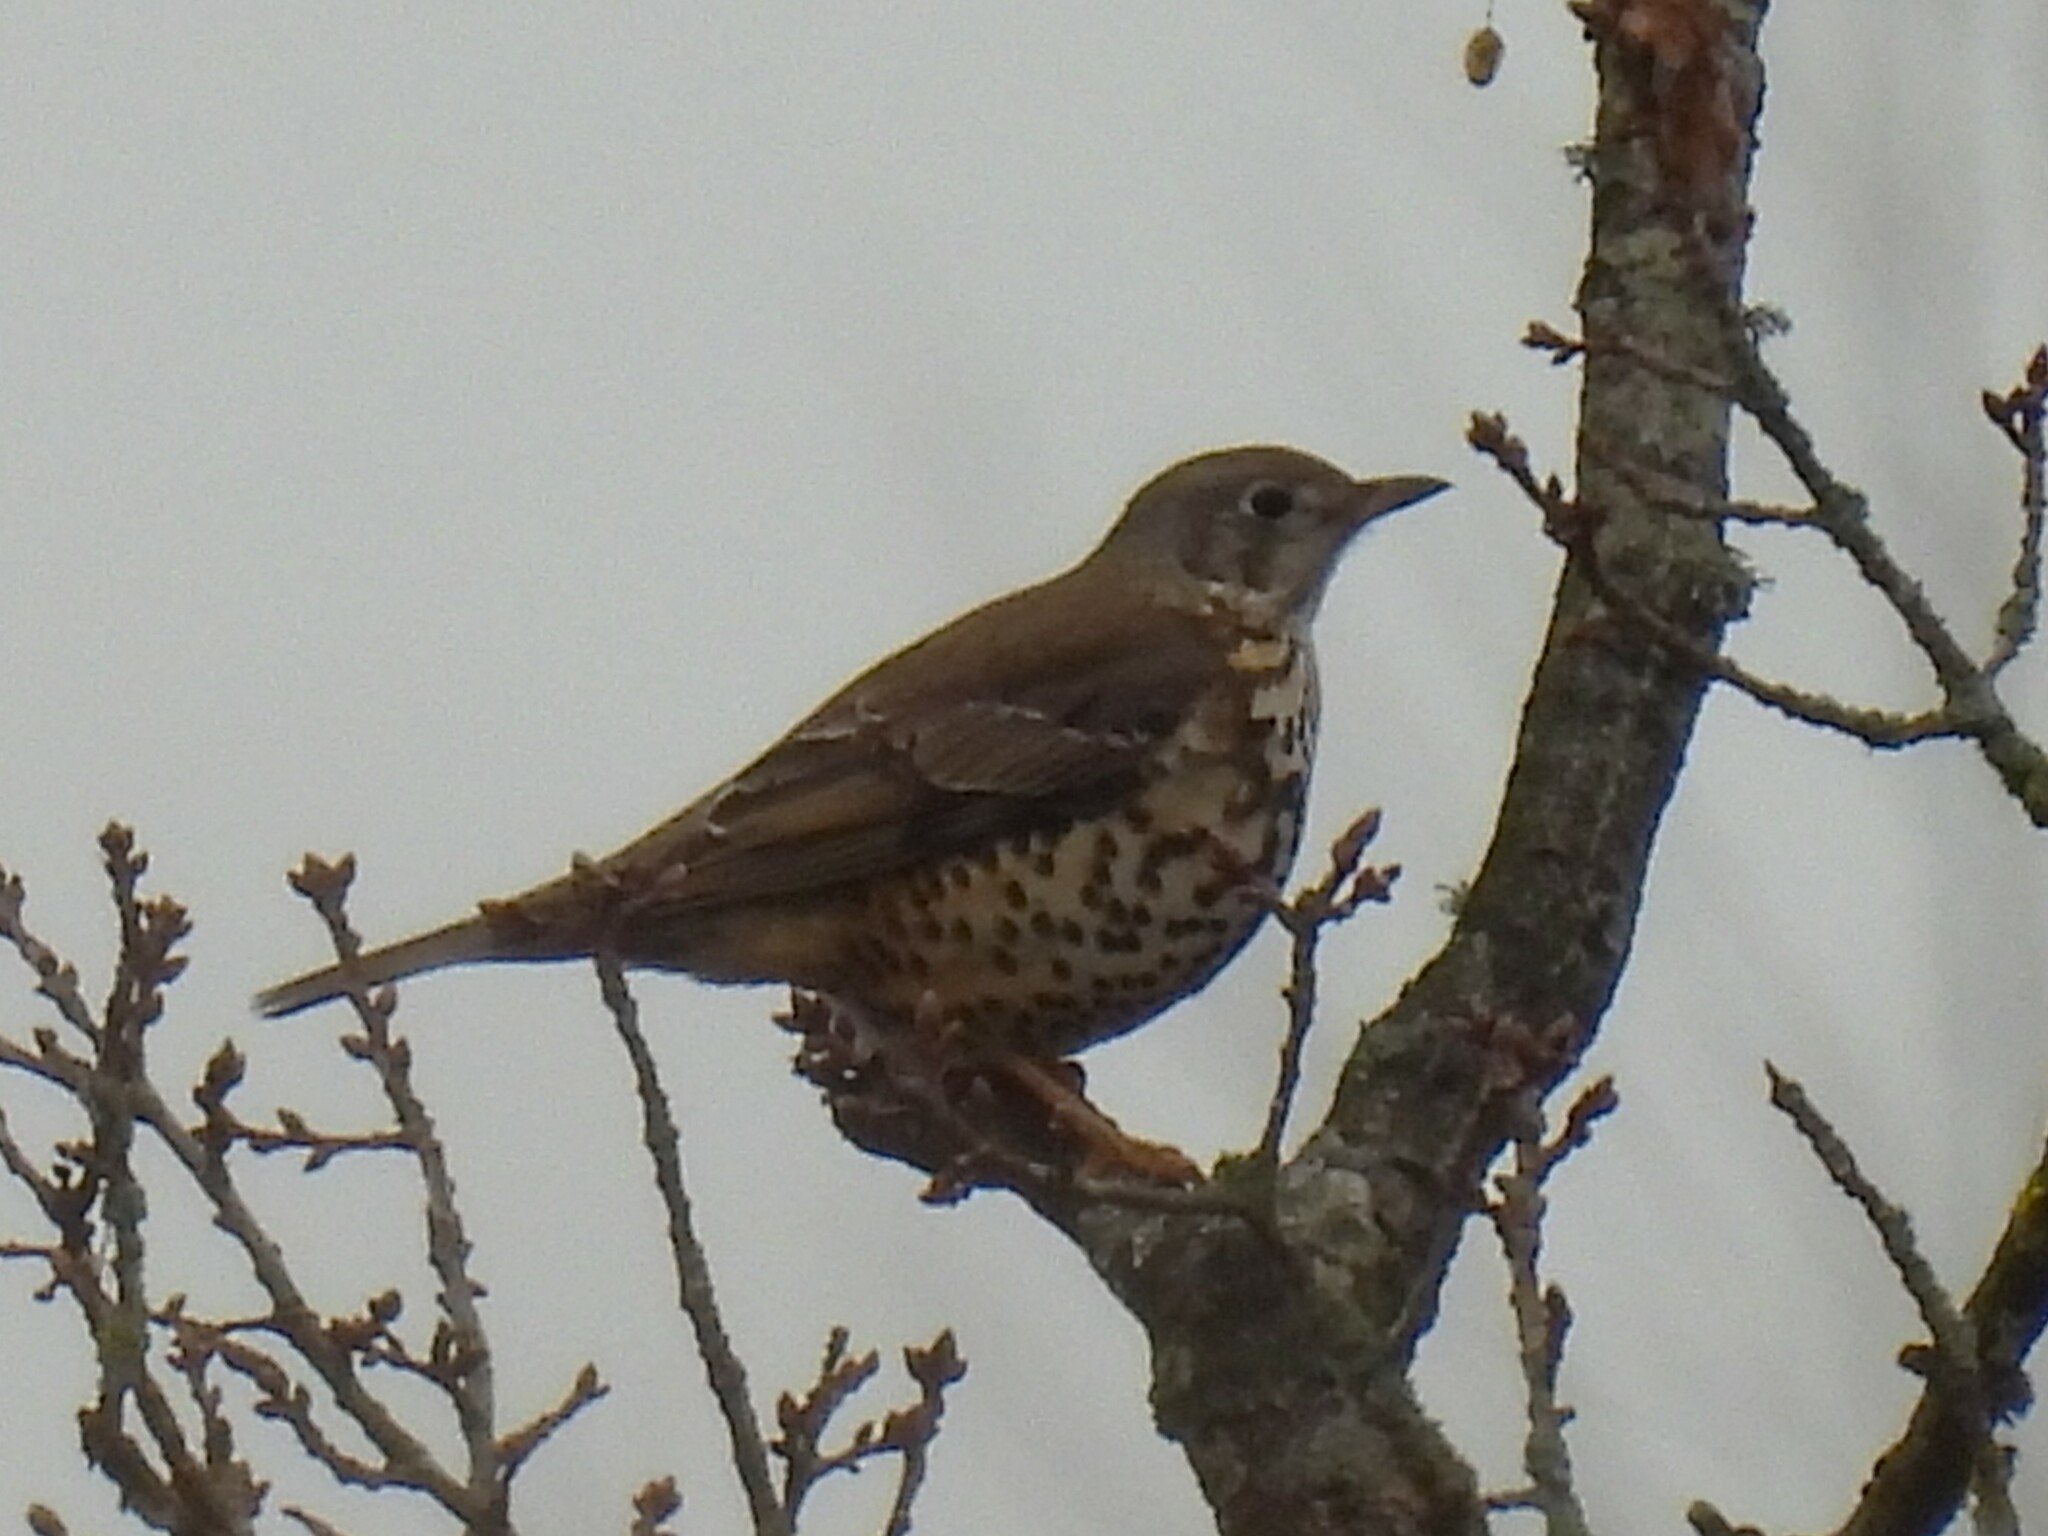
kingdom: Animalia
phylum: Chordata
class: Aves
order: Passeriformes
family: Turdidae
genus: Turdus
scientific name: Turdus viscivorus
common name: Mistle thrush
